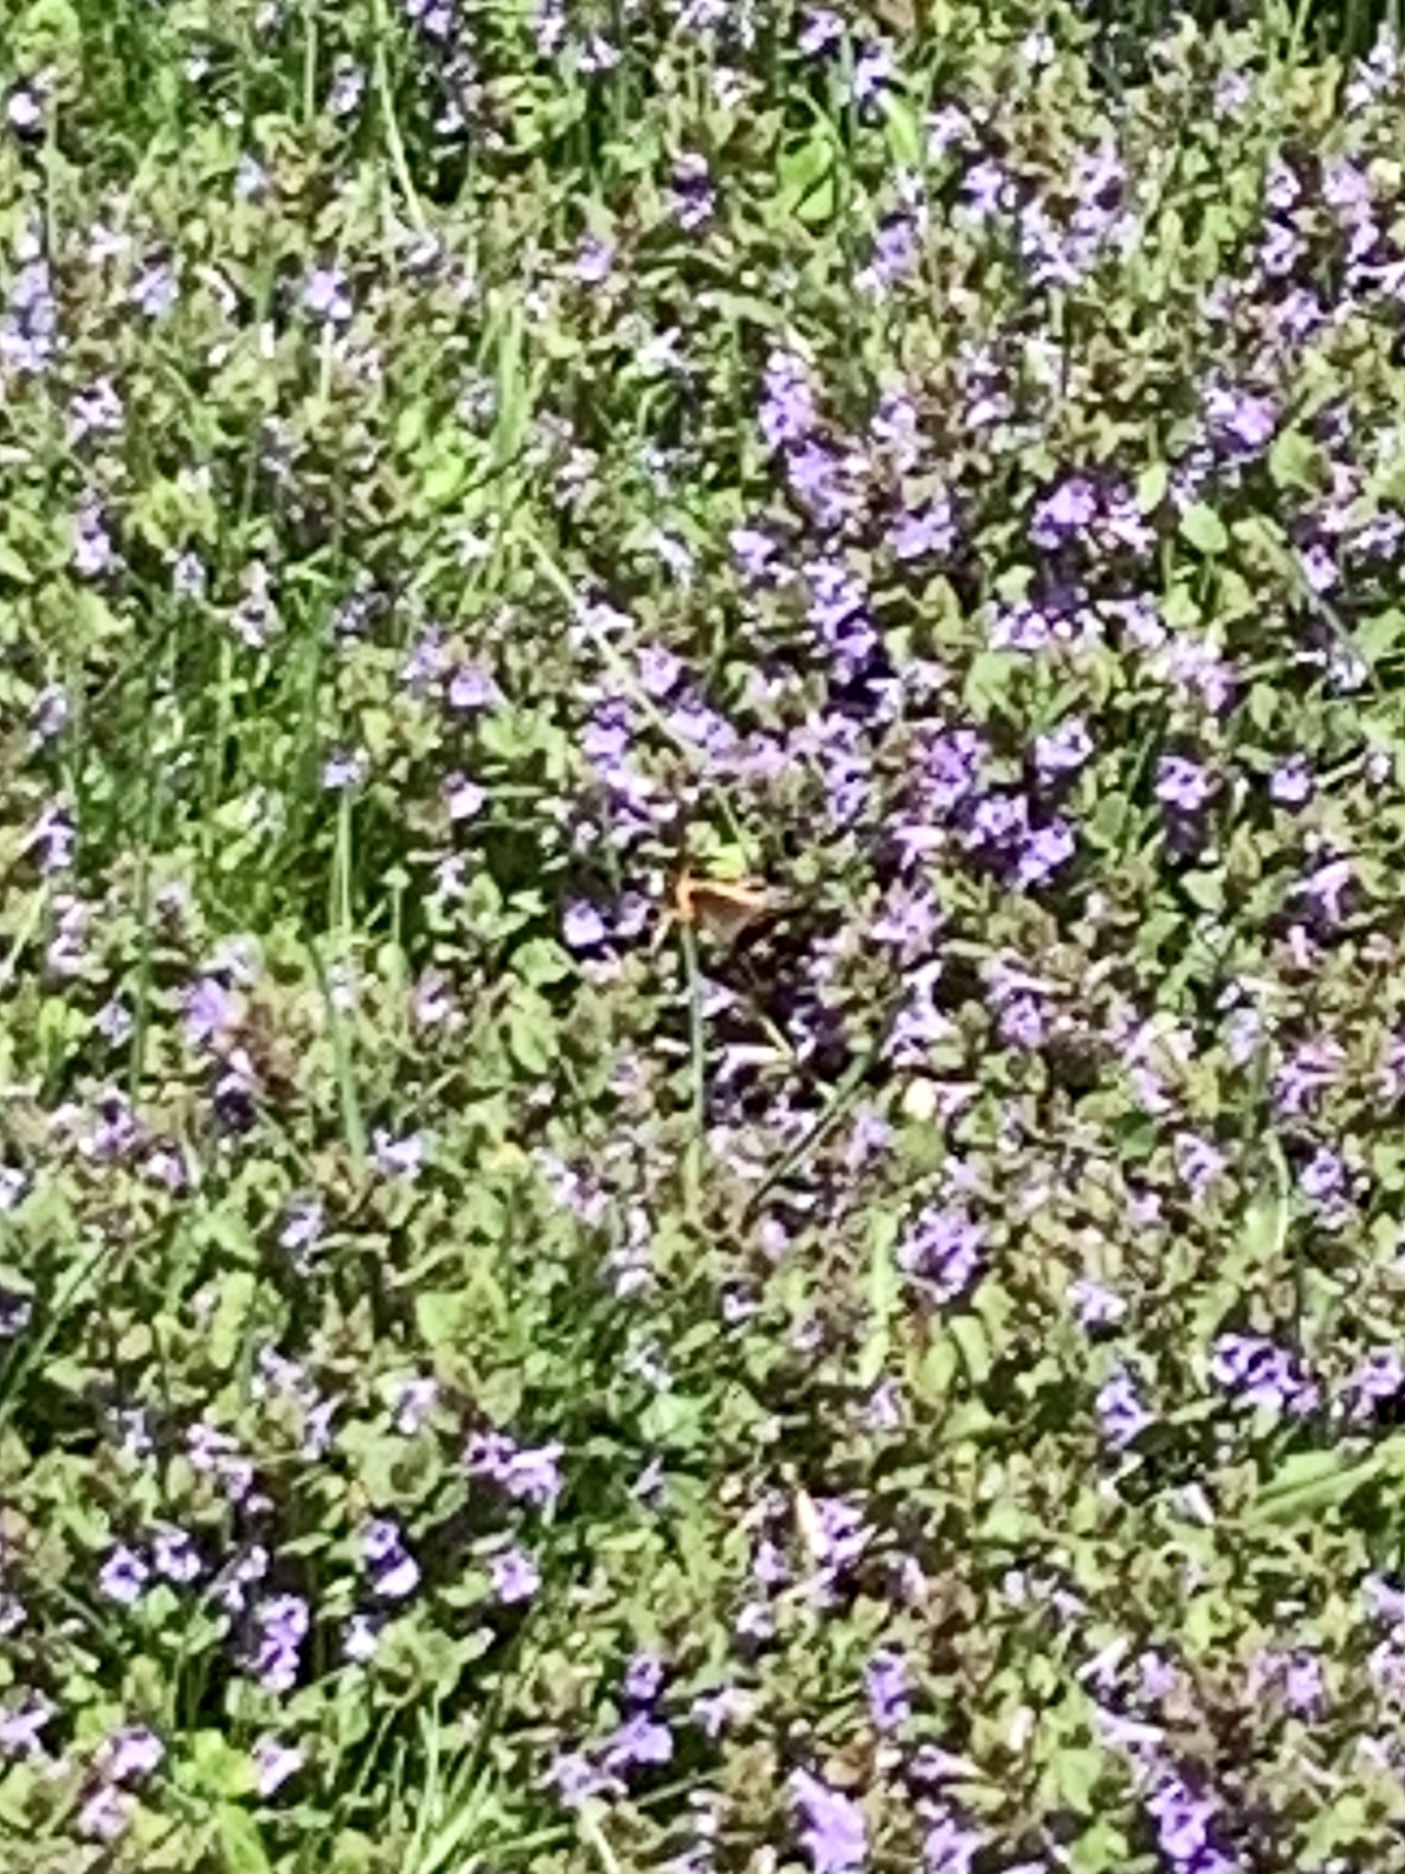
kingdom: Animalia
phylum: Arthropoda
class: Insecta
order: Lepidoptera
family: Nymphalidae
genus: Vanessa
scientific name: Vanessa atalanta
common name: Red admiral
